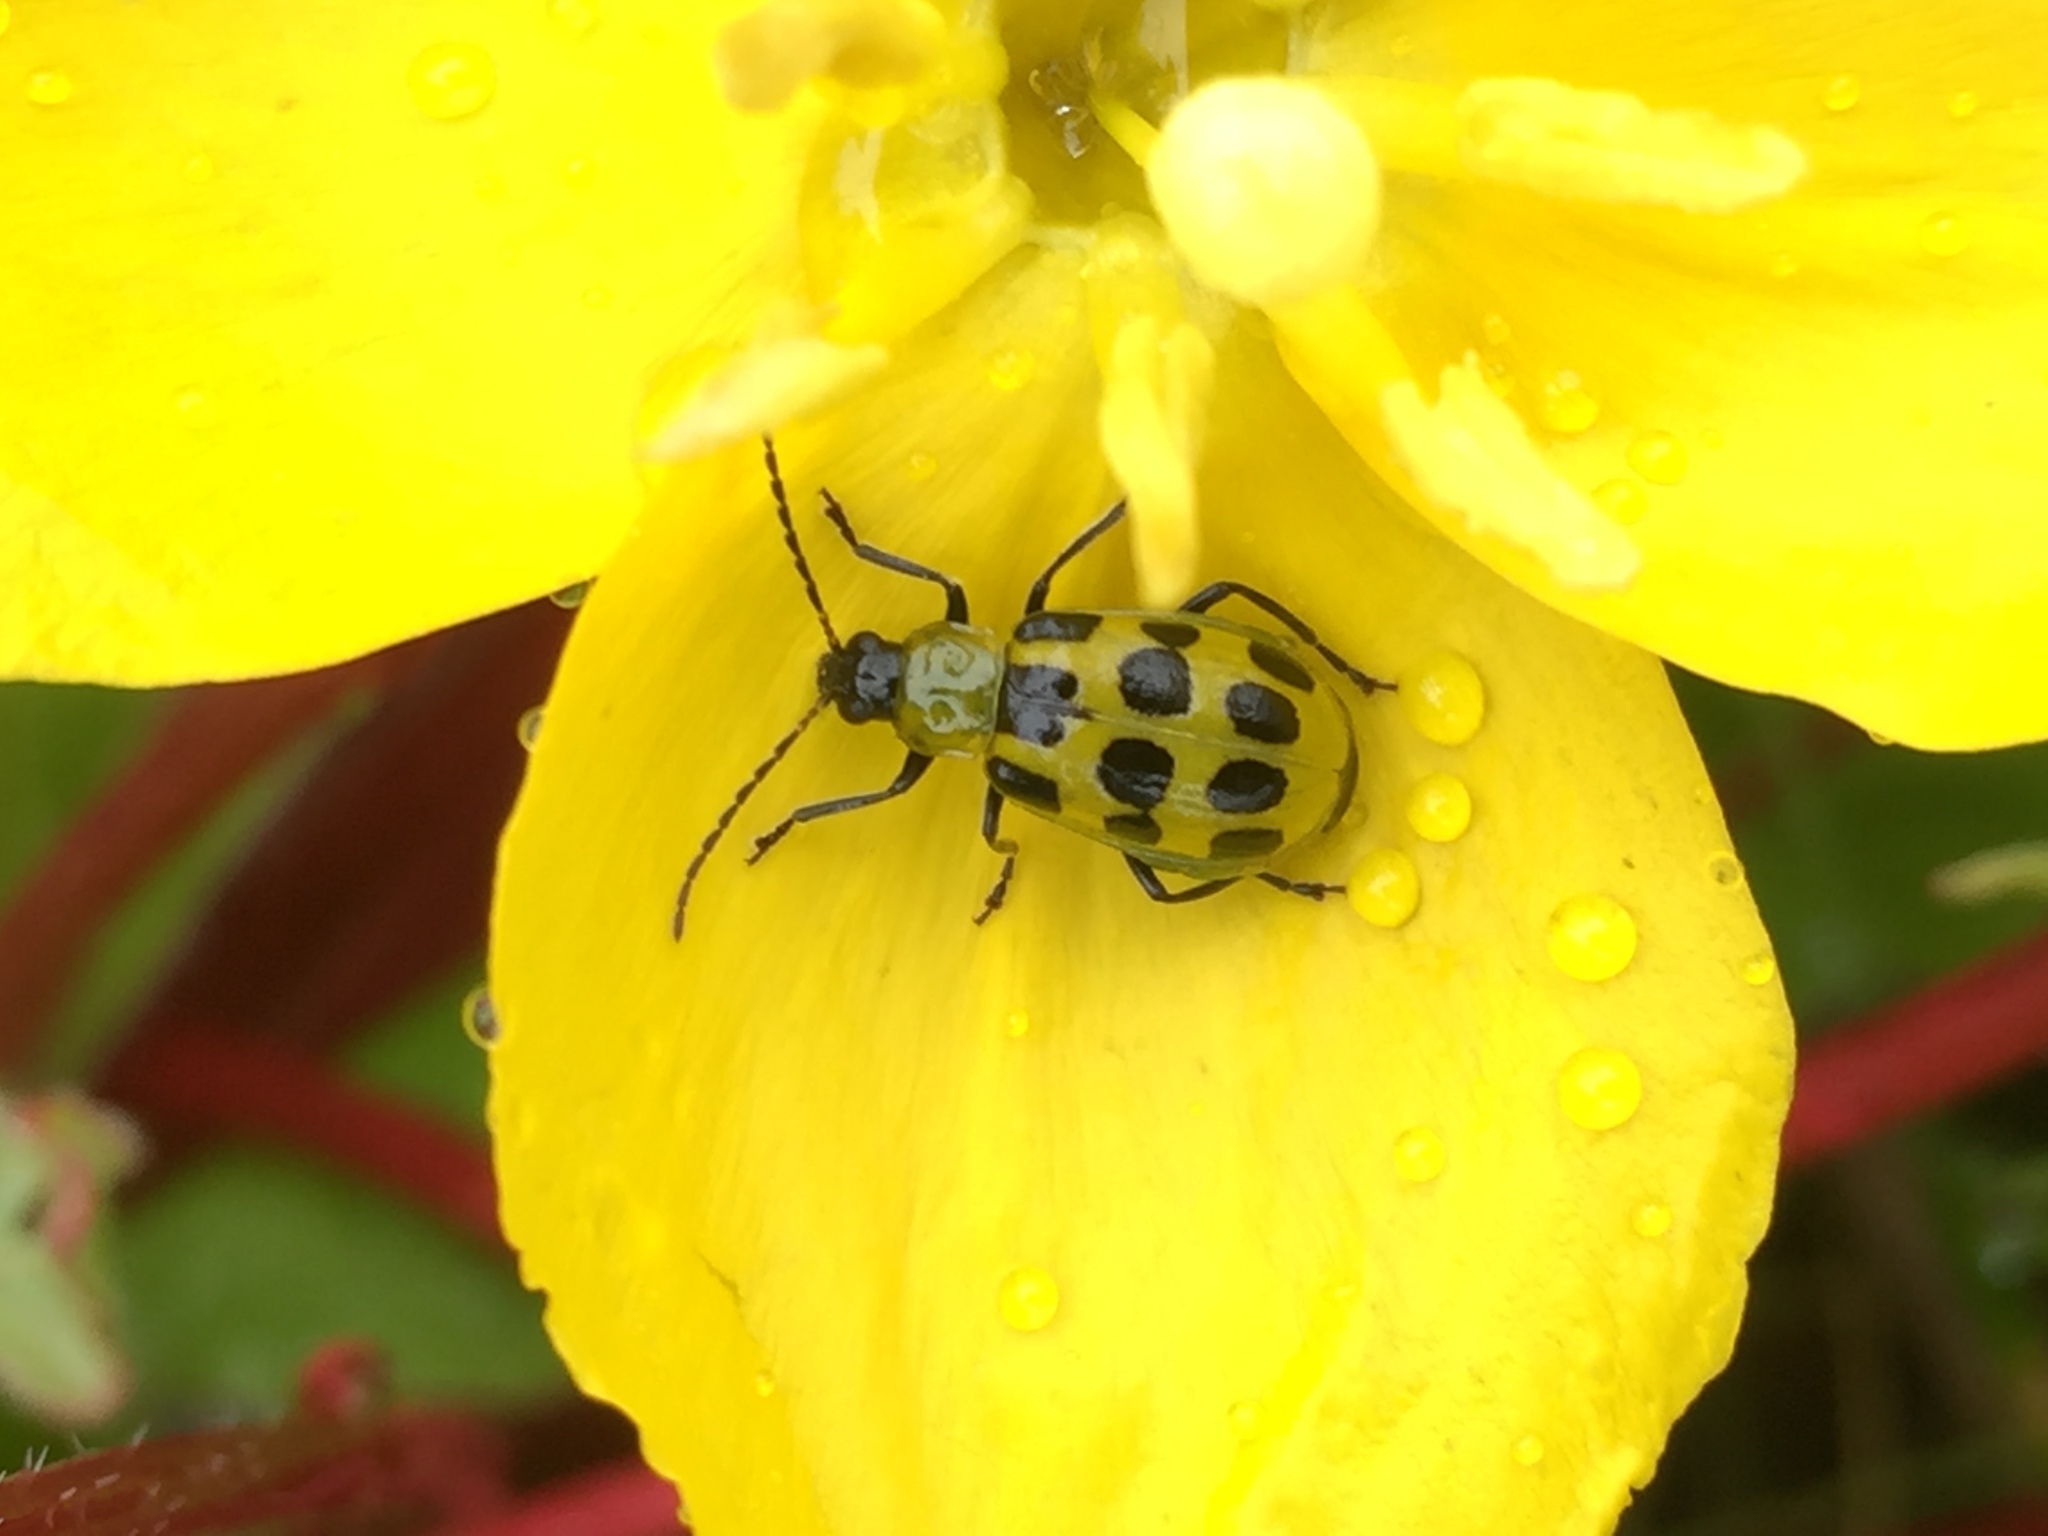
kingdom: Animalia
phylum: Arthropoda
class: Insecta
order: Coleoptera
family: Chrysomelidae
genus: Diabrotica
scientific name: Diabrotica undecimpunctata
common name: Spotted cucumber beetle
